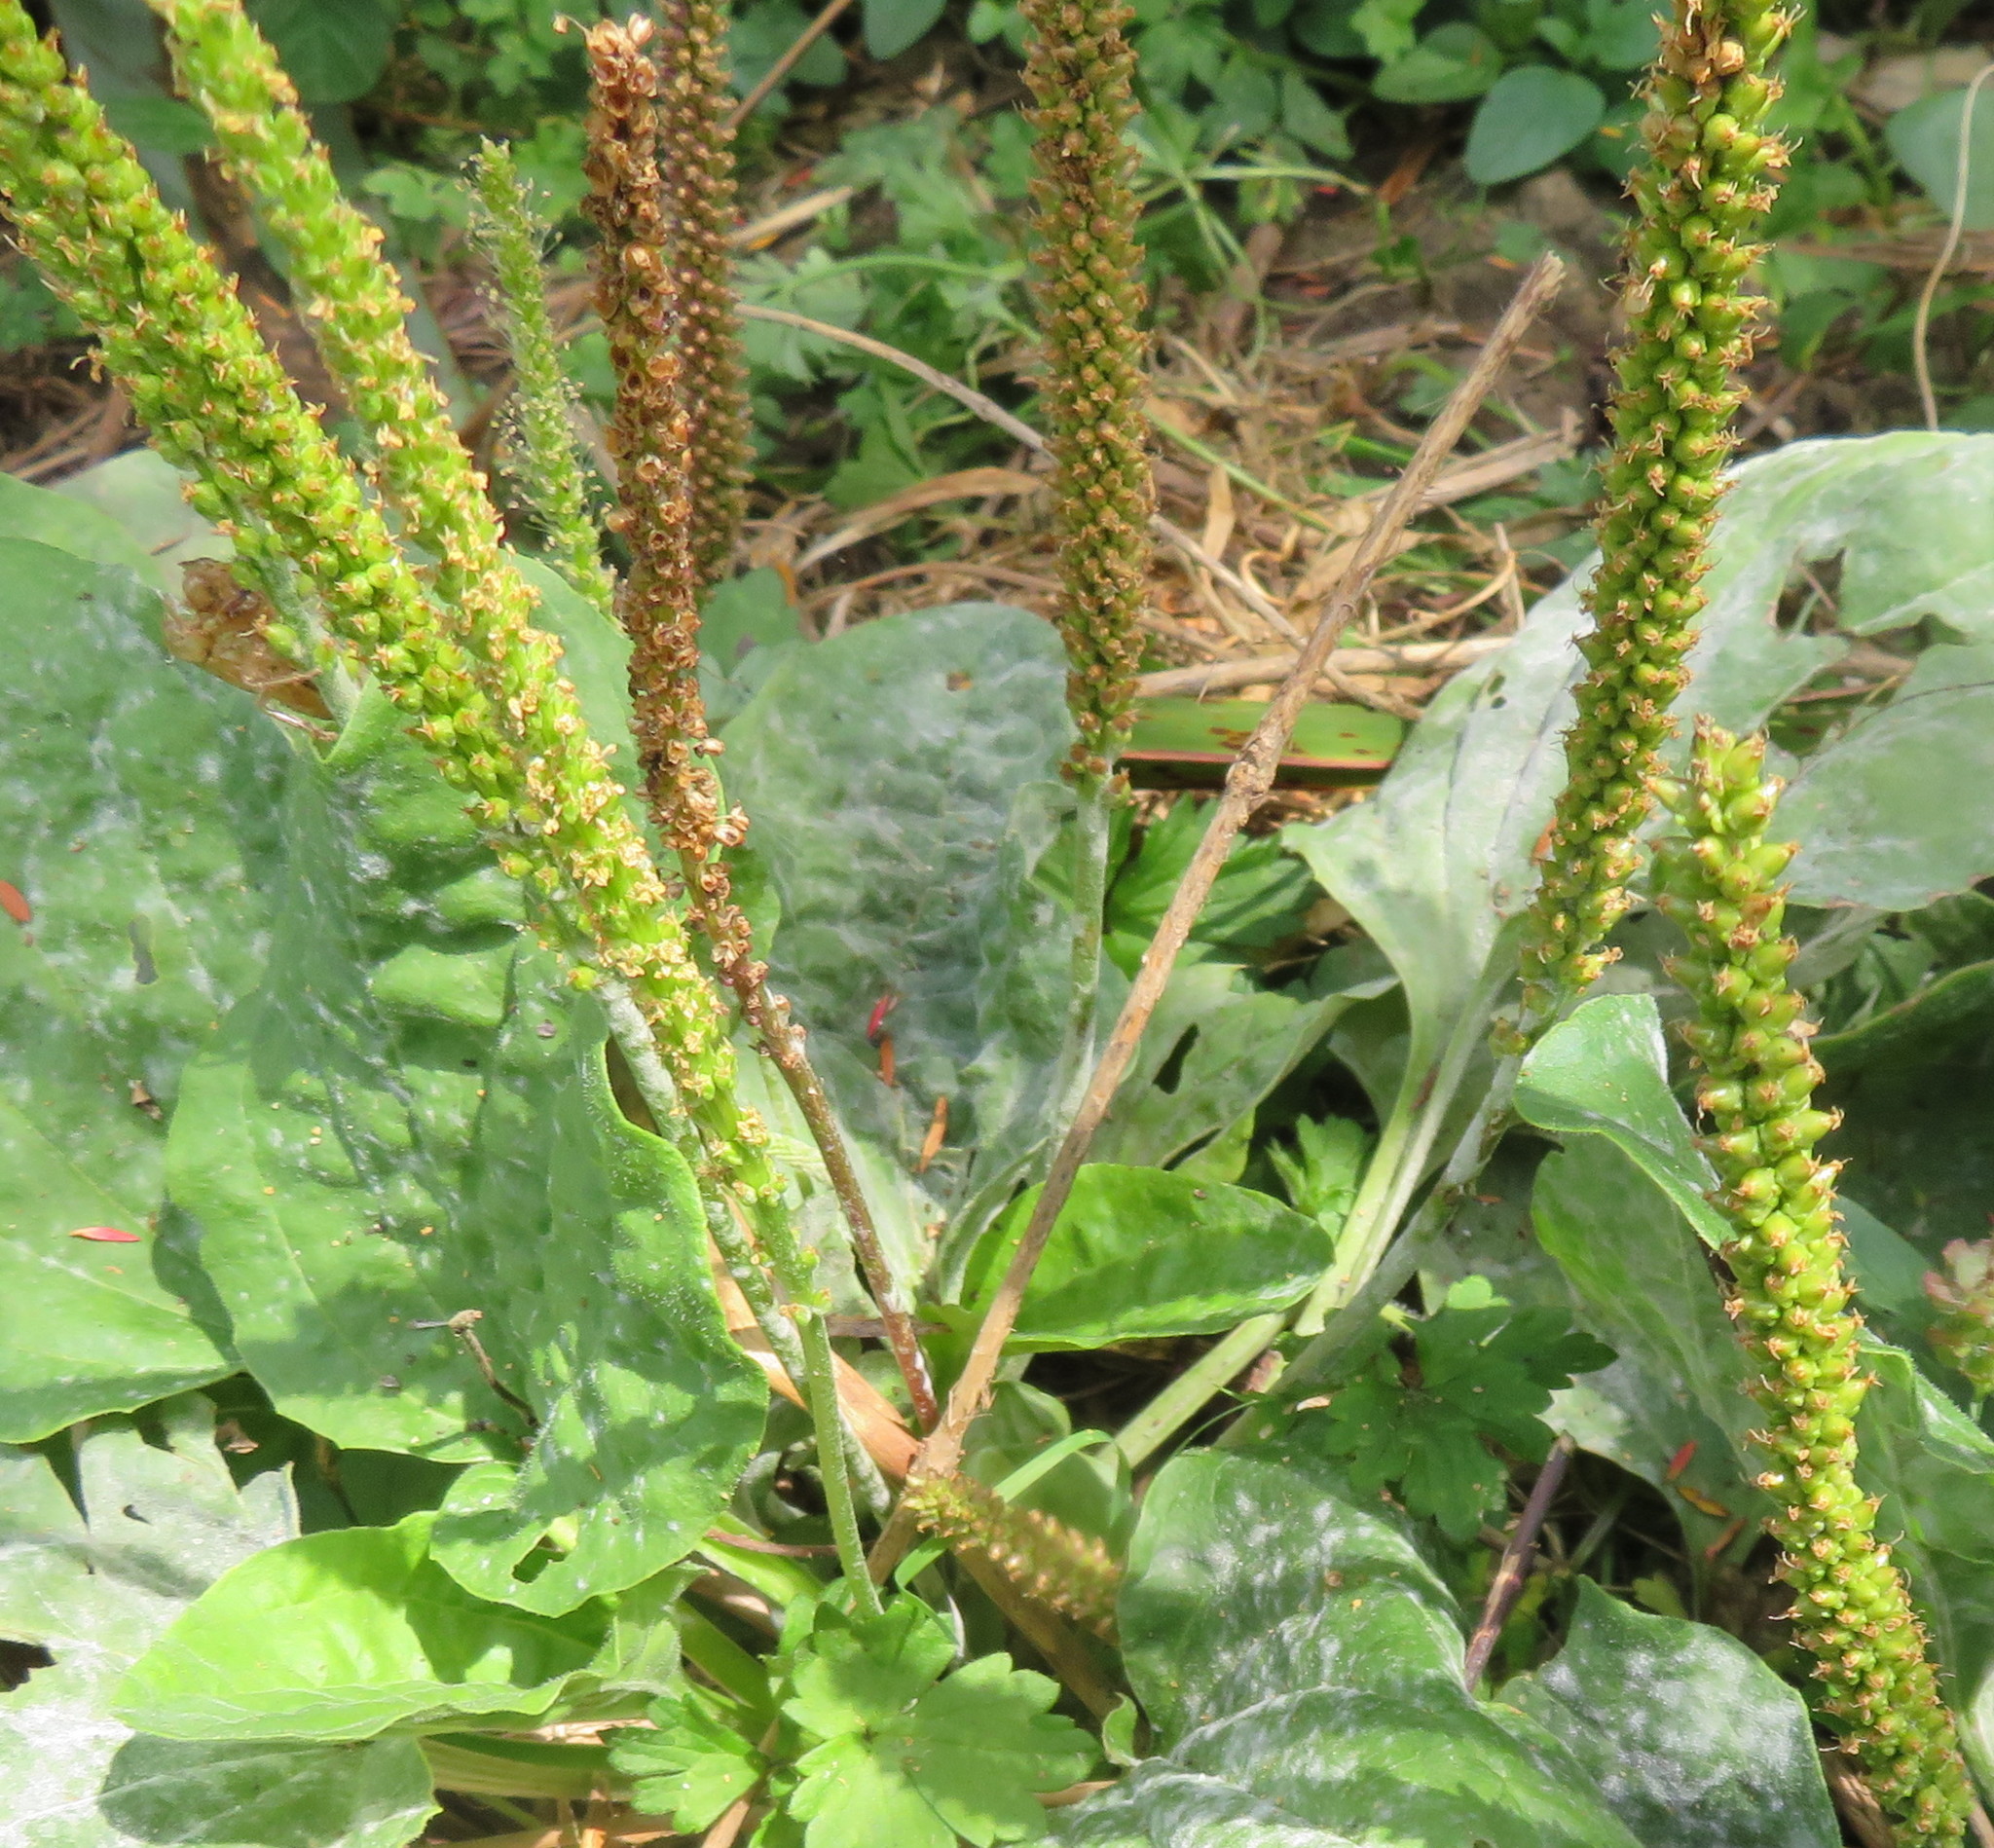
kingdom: Plantae
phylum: Tracheophyta
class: Magnoliopsida
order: Lamiales
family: Plantaginaceae
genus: Plantago
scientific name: Plantago major
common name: Common plantain
